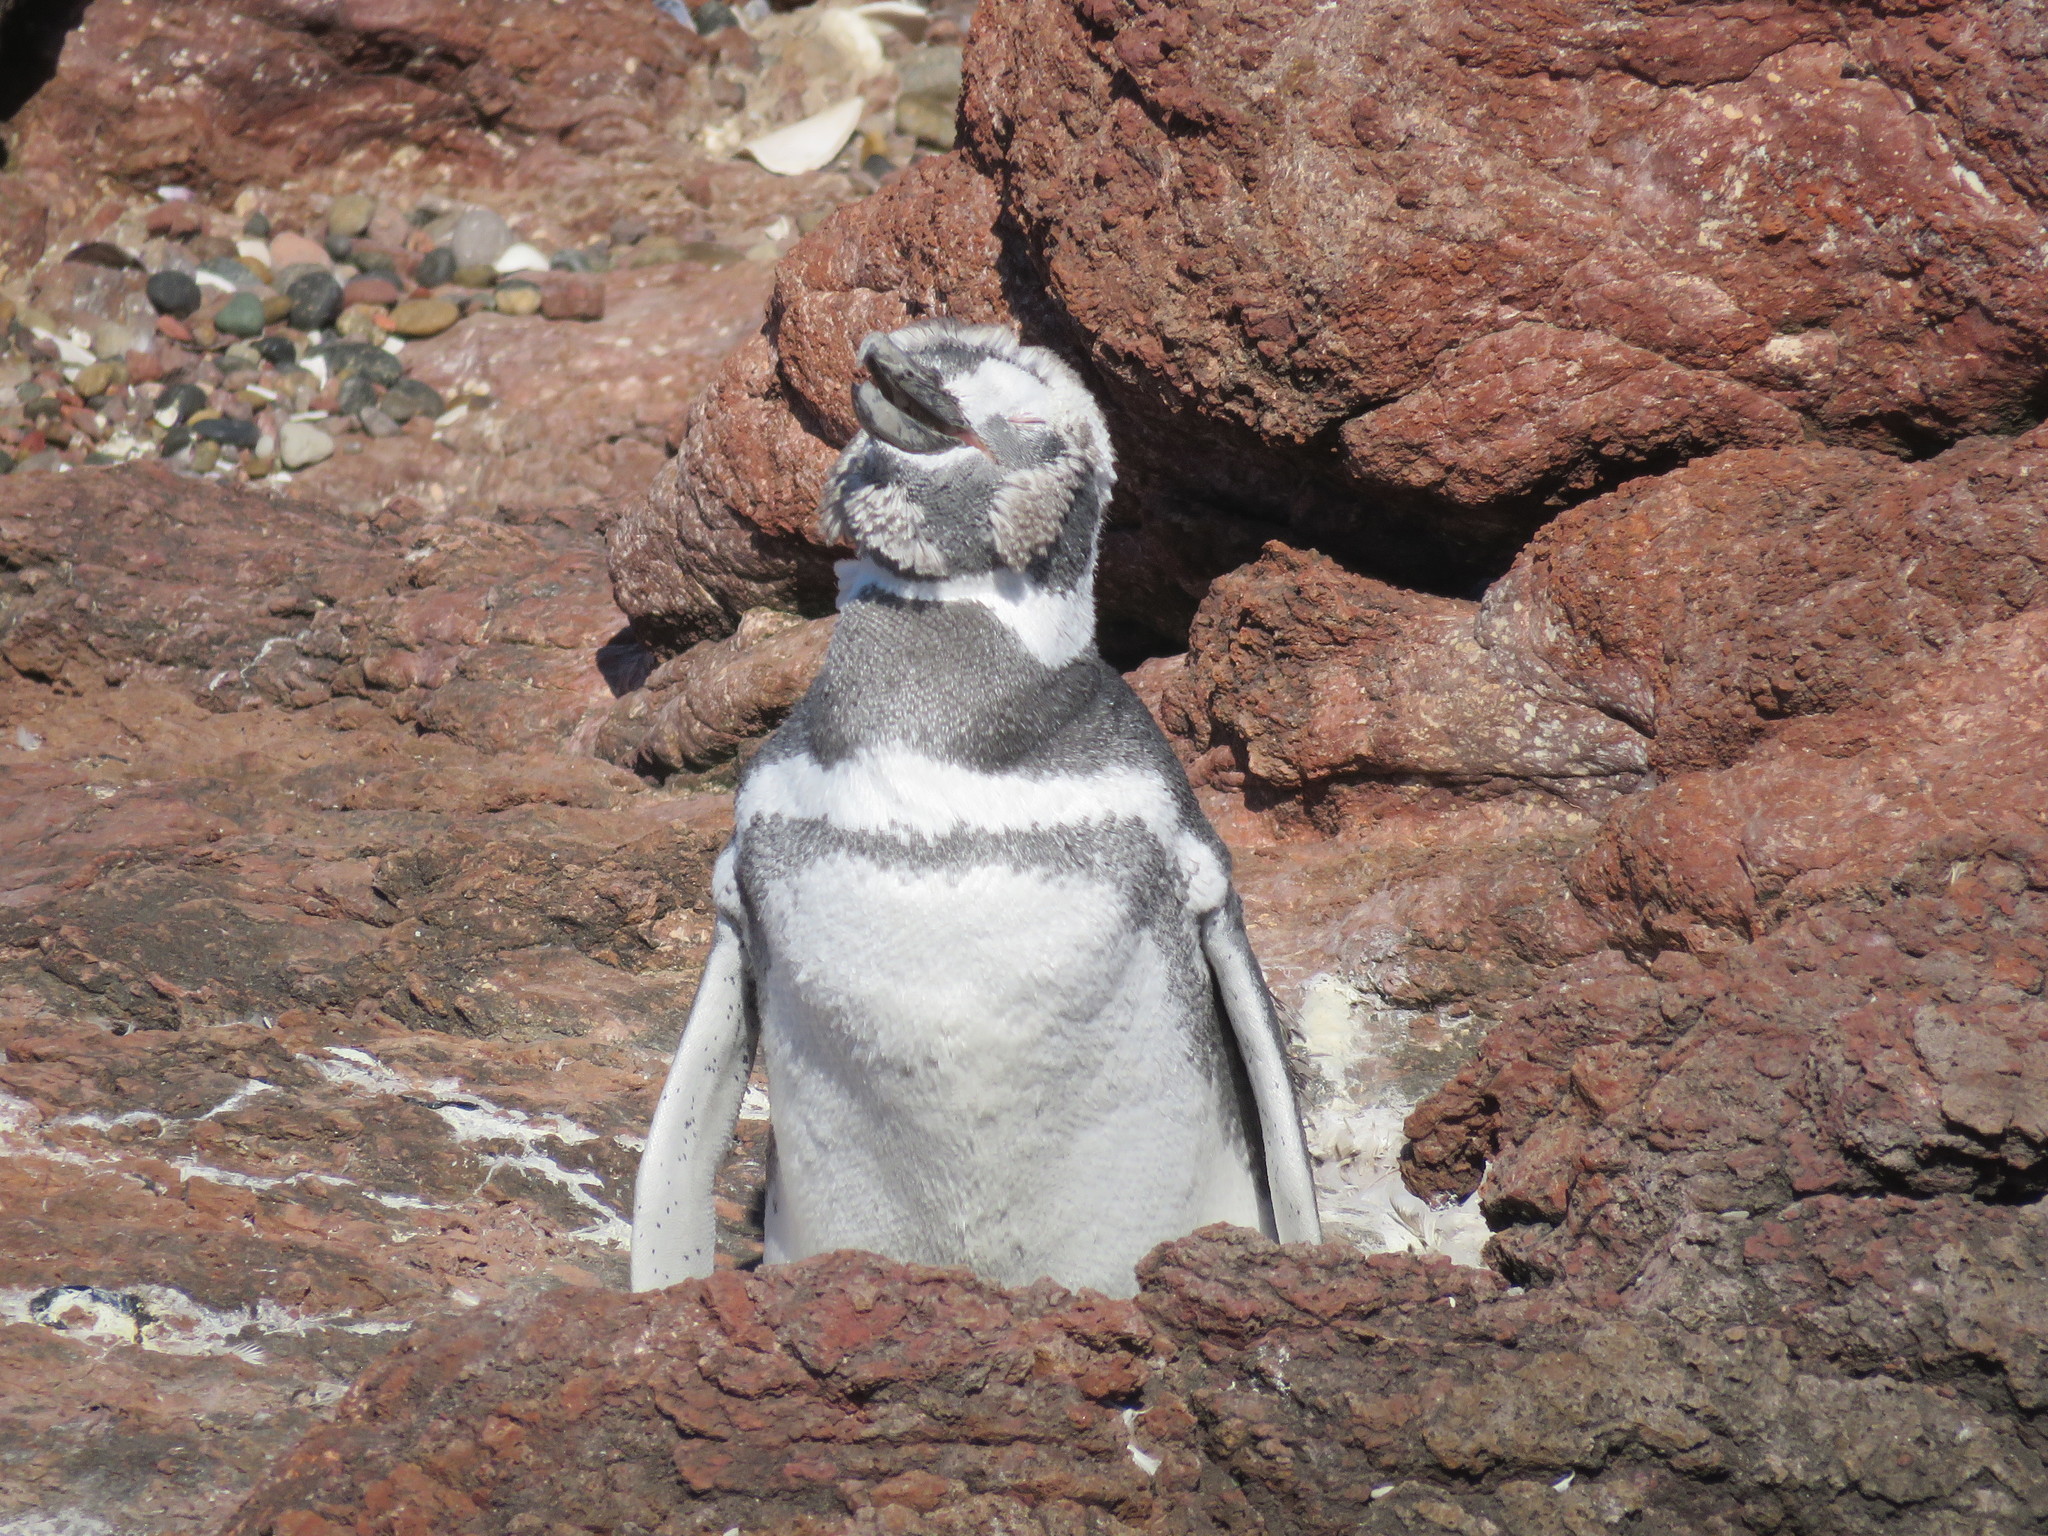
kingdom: Animalia
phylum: Chordata
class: Aves
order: Sphenisciformes
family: Spheniscidae
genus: Spheniscus
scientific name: Spheniscus magellanicus
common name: Magellanic penguin
